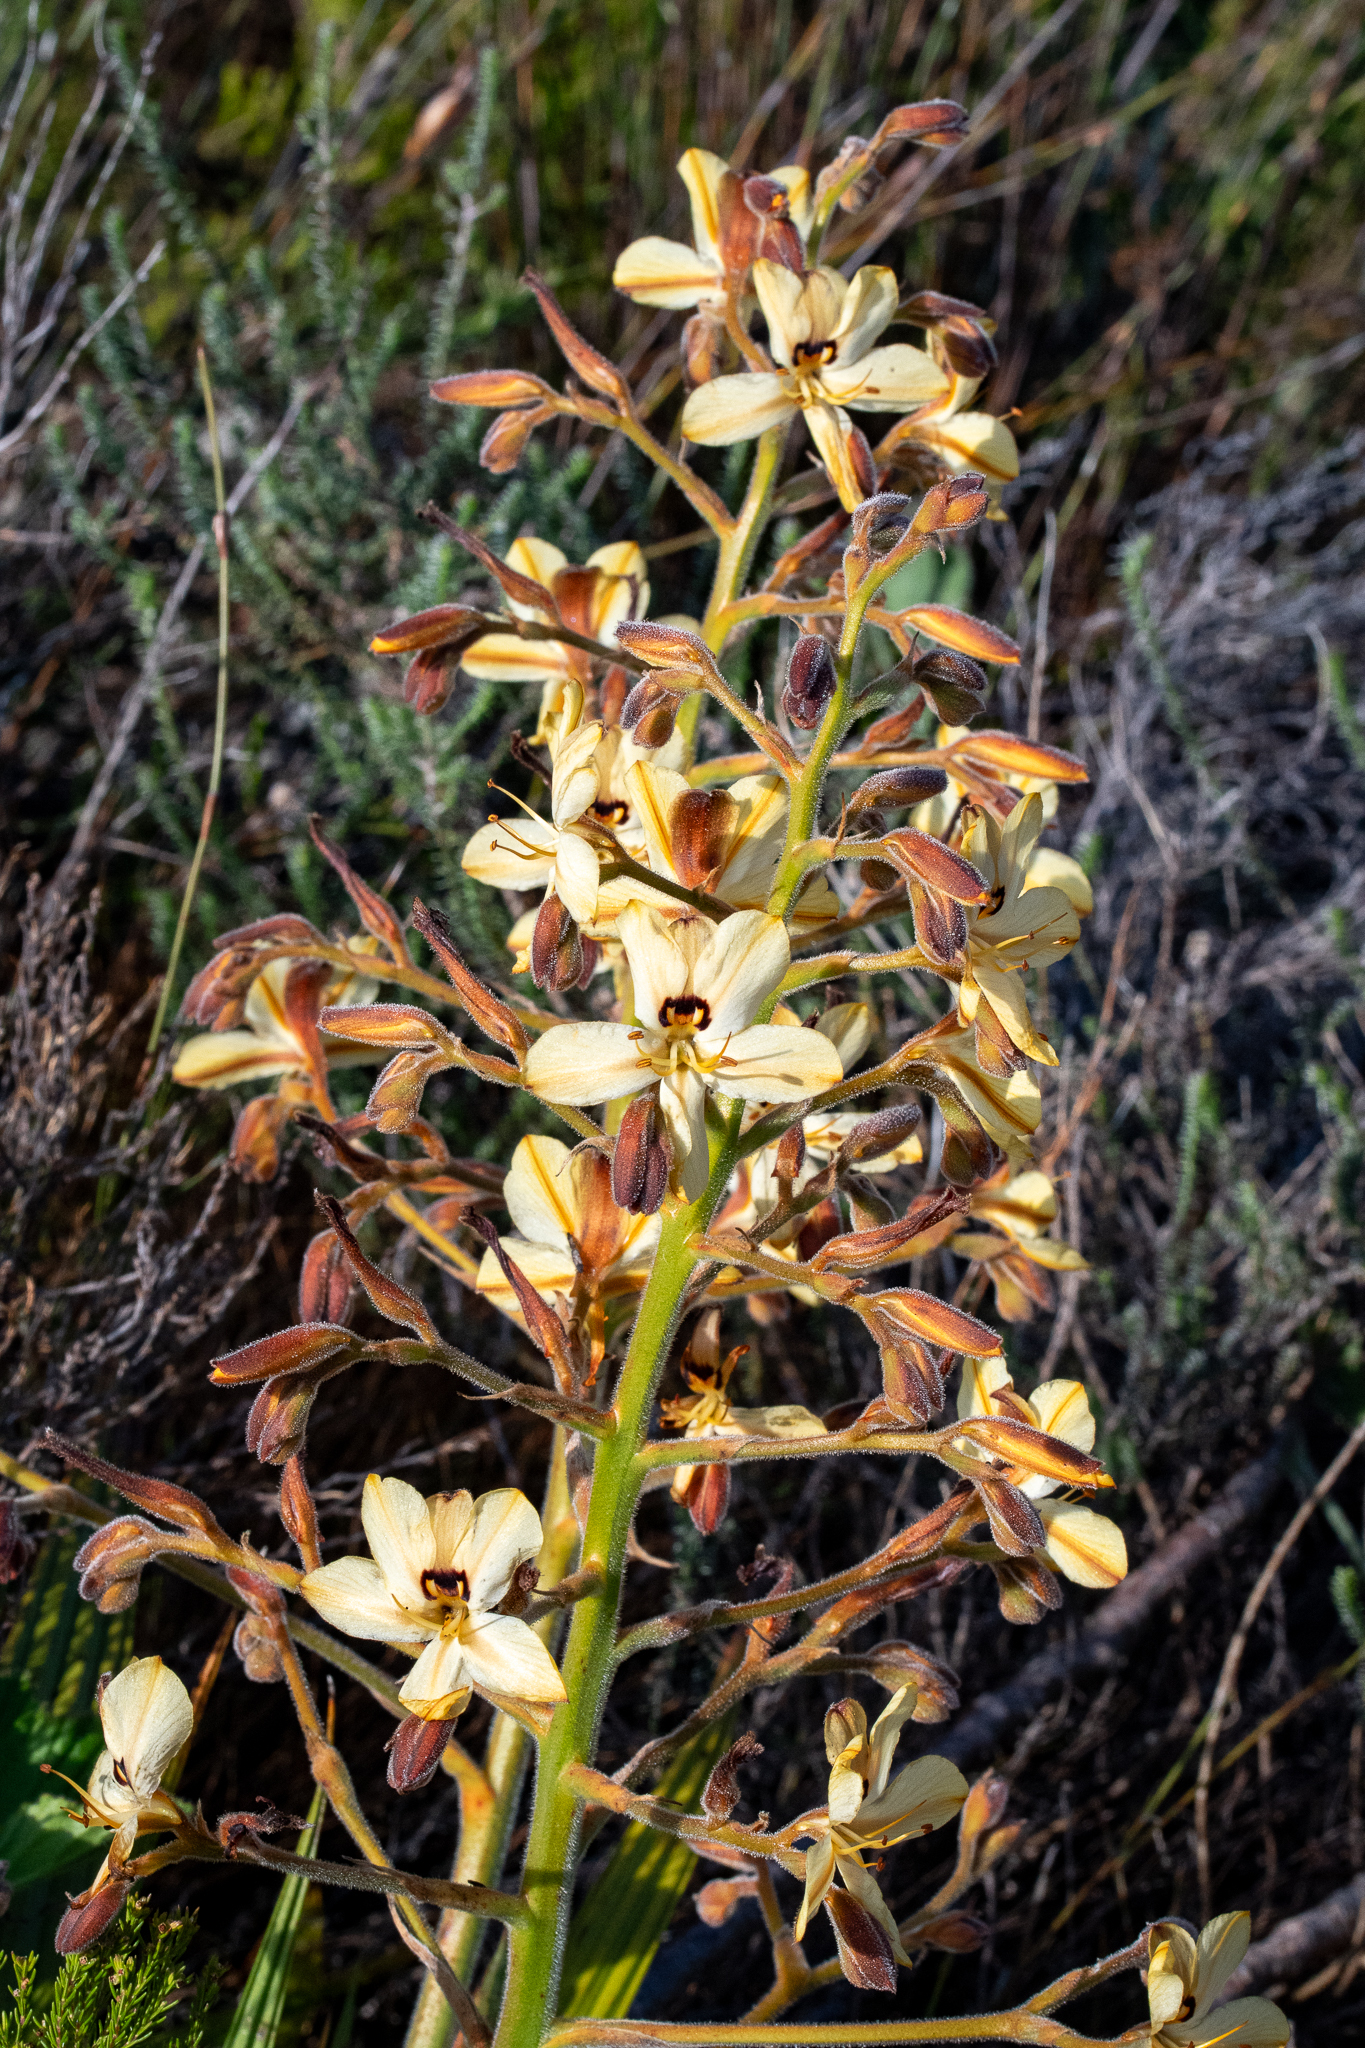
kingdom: Plantae
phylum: Tracheophyta
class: Liliopsida
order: Commelinales
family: Haemodoraceae
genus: Wachendorfia
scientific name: Wachendorfia paniculata
